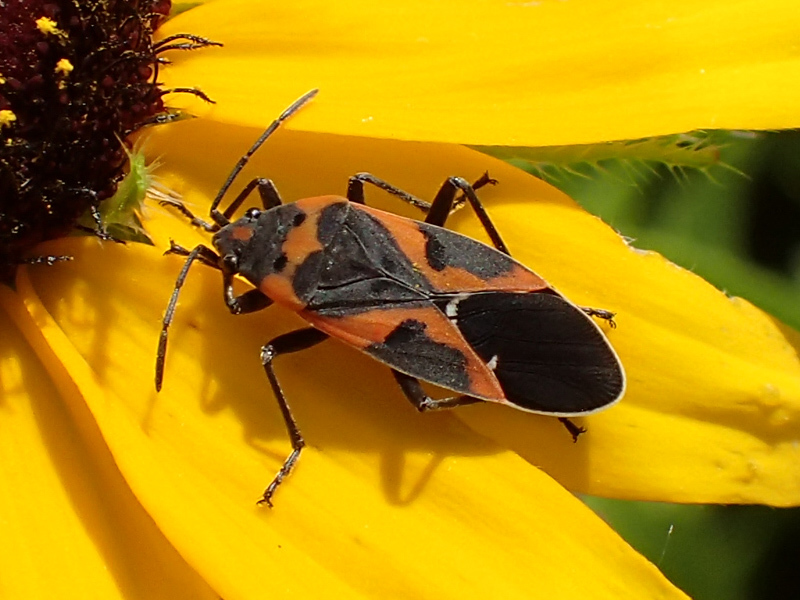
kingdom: Animalia
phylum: Arthropoda
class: Insecta
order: Hemiptera
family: Lygaeidae
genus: Lygaeus
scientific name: Lygaeus kalmii
